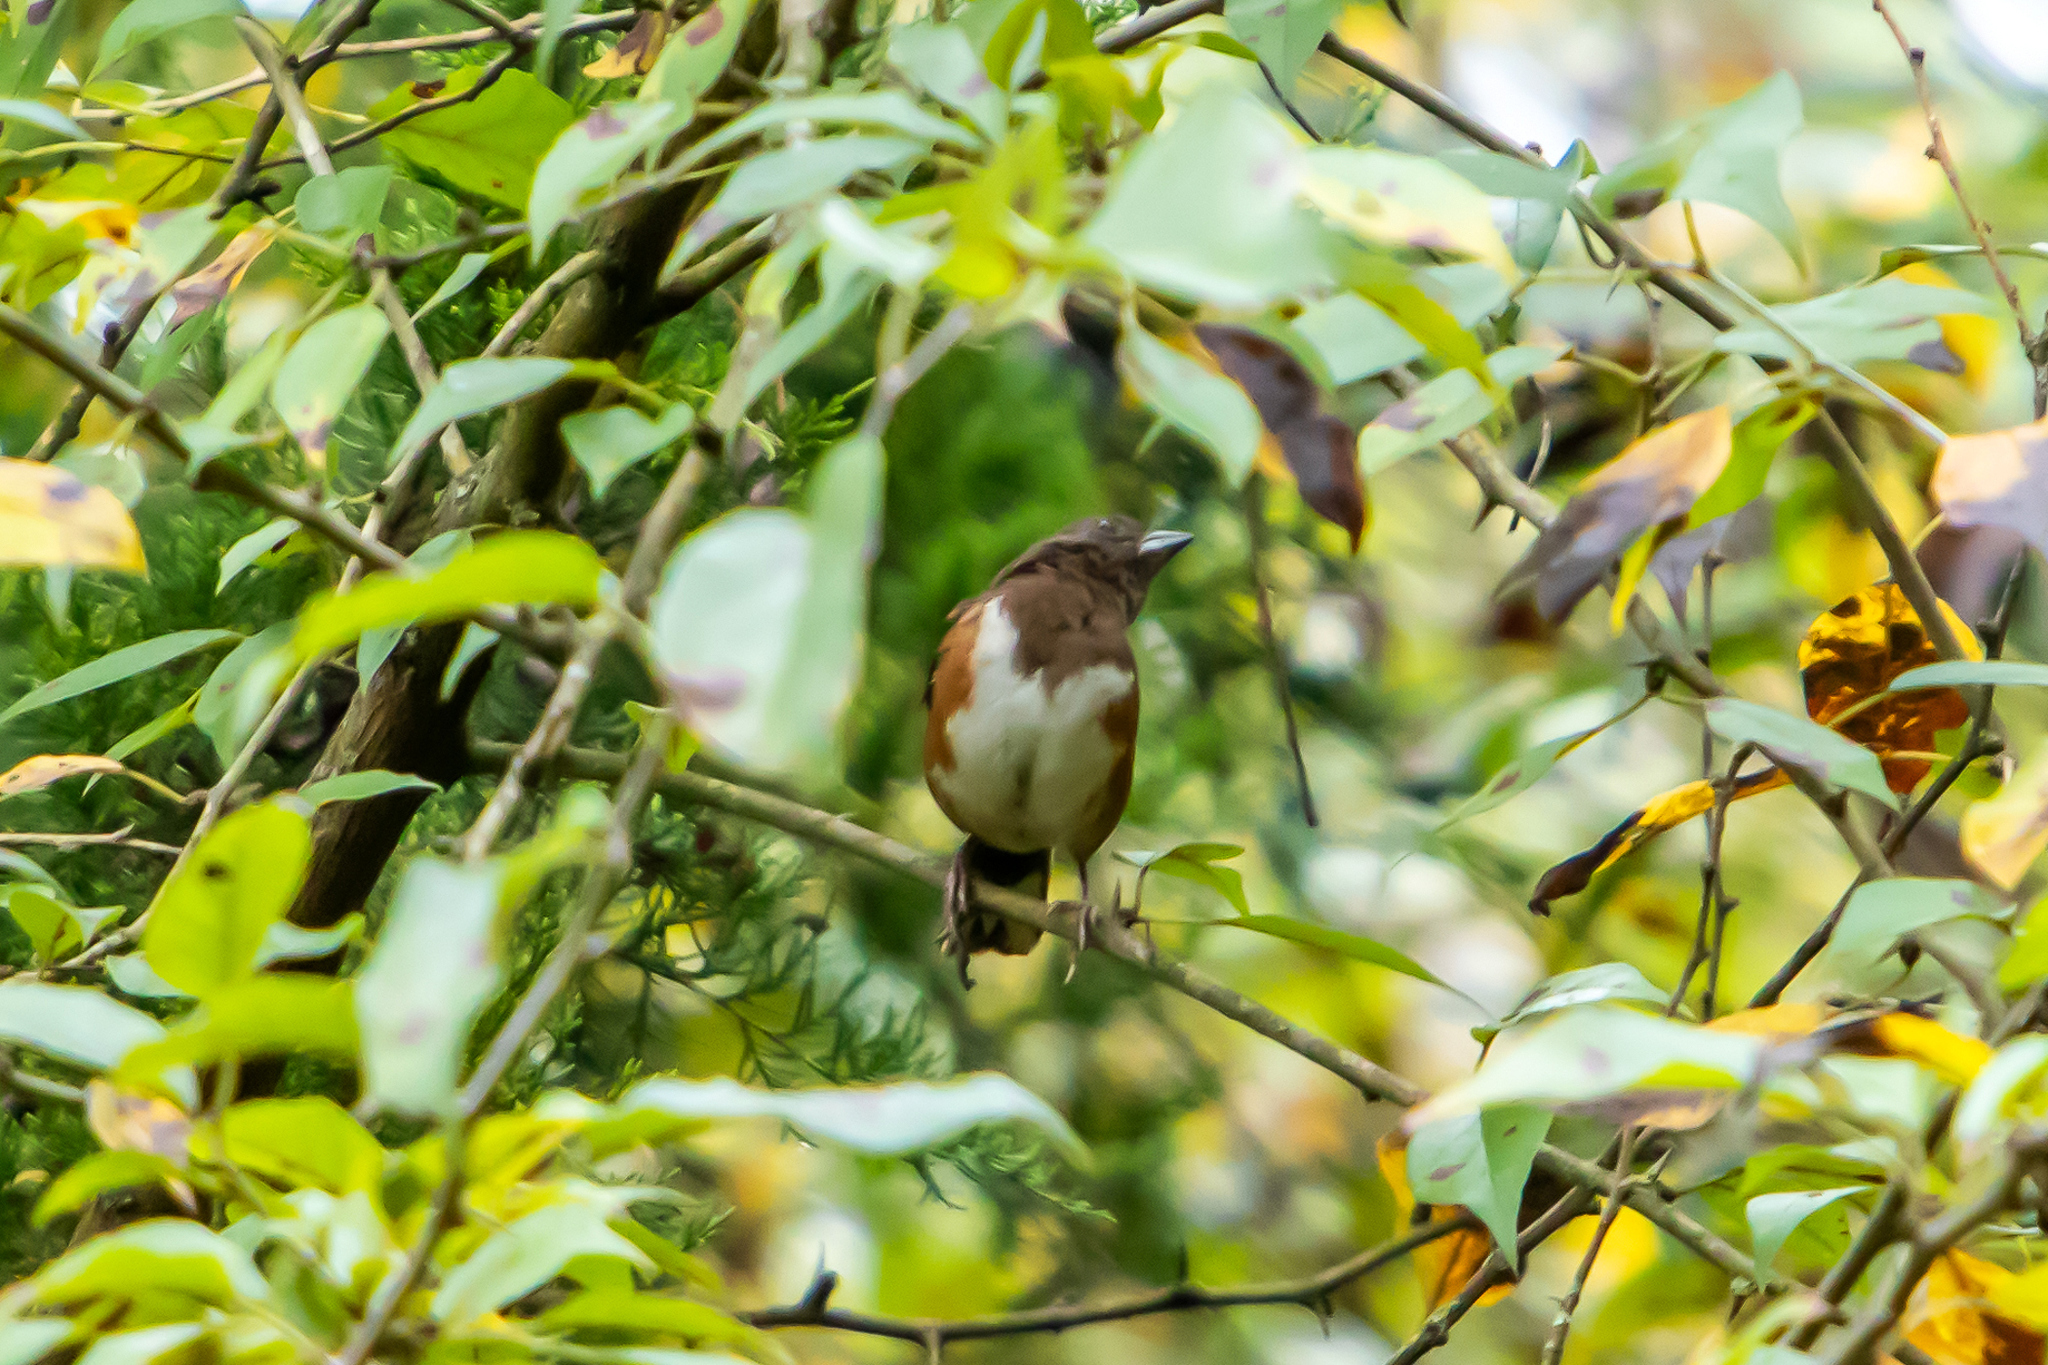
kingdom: Animalia
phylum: Chordata
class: Aves
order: Passeriformes
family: Passerellidae
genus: Pipilo
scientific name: Pipilo erythrophthalmus
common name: Eastern towhee
